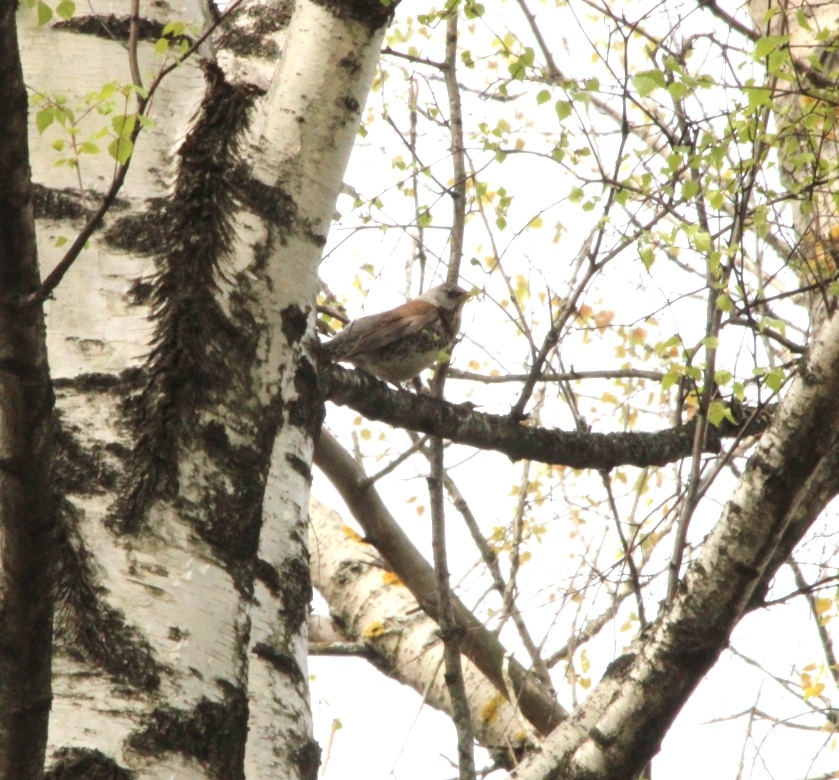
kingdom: Animalia
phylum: Chordata
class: Aves
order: Passeriformes
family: Turdidae
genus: Turdus
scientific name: Turdus pilaris
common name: Fieldfare
